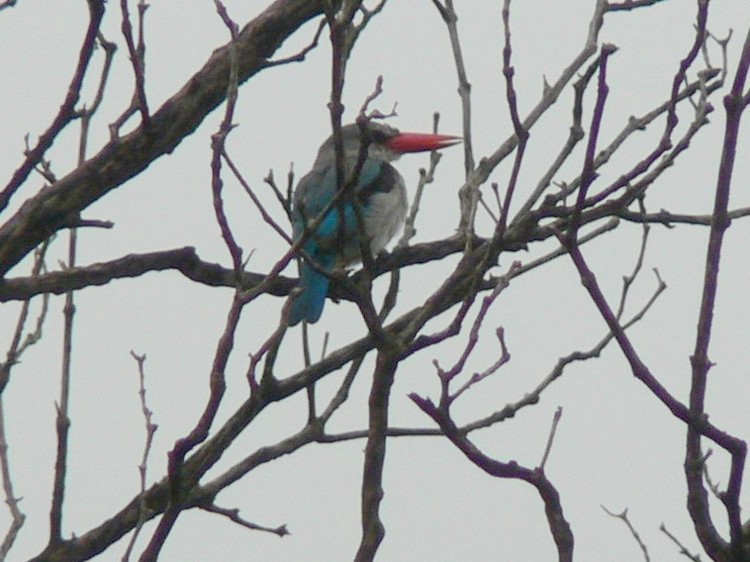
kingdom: Animalia
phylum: Chordata
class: Aves
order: Coraciiformes
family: Alcedinidae
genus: Halcyon
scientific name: Halcyon senegaloides
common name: Mangrove kingfisher
